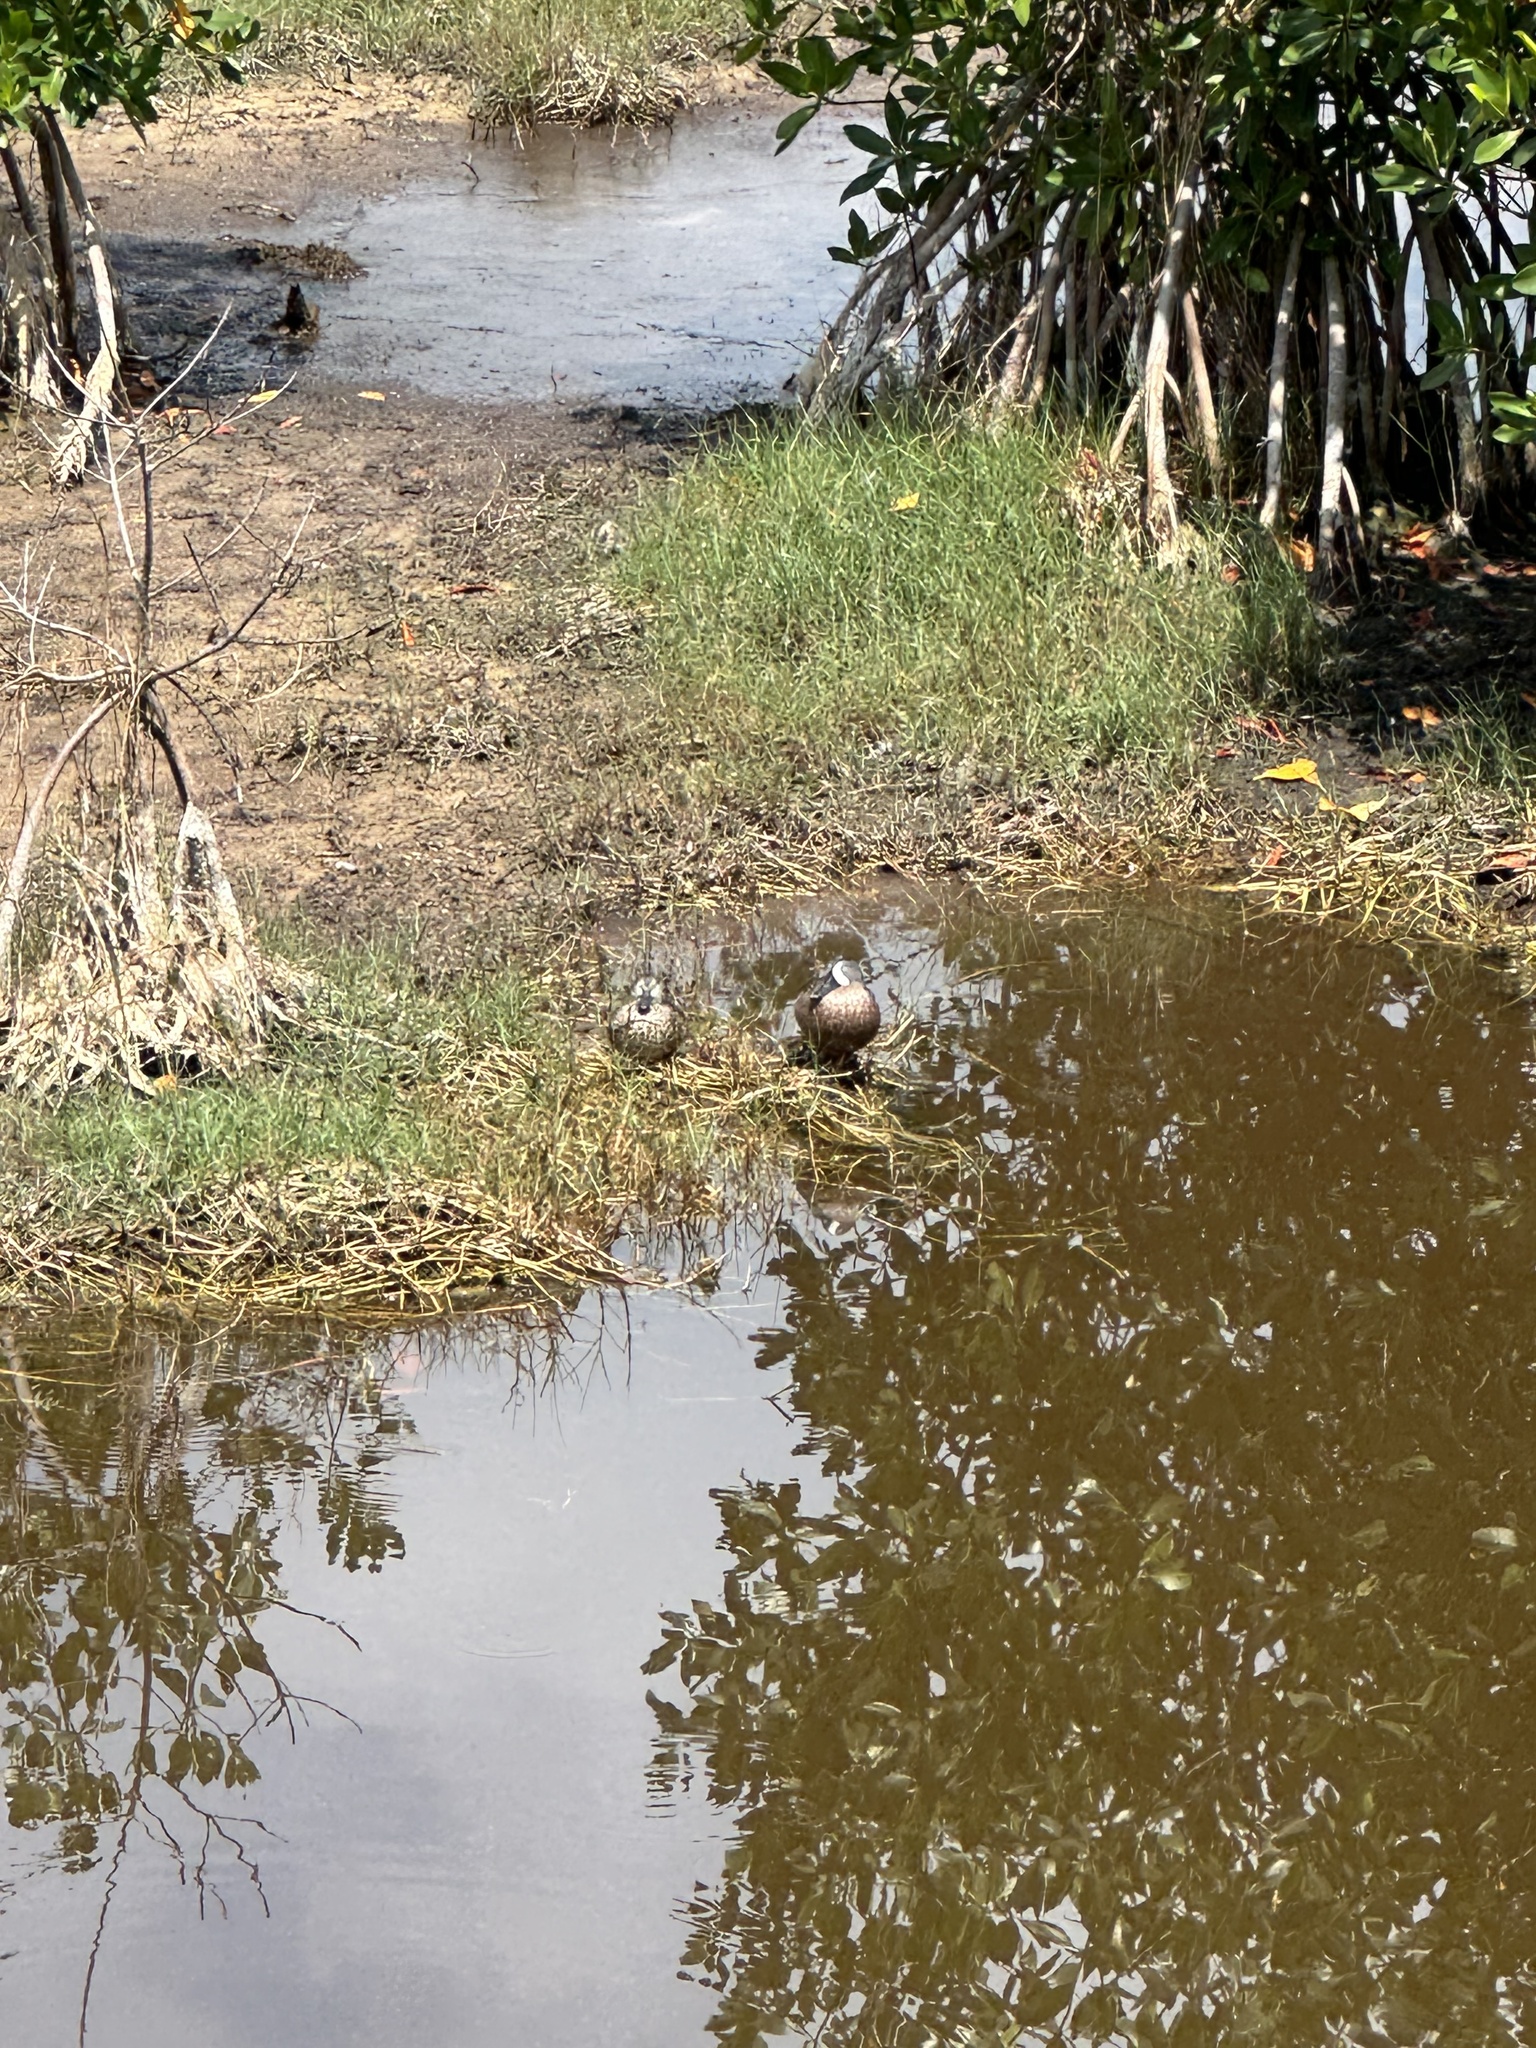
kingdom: Animalia
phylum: Chordata
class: Aves
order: Anseriformes
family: Anatidae
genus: Spatula
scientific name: Spatula discors
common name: Blue-winged teal
